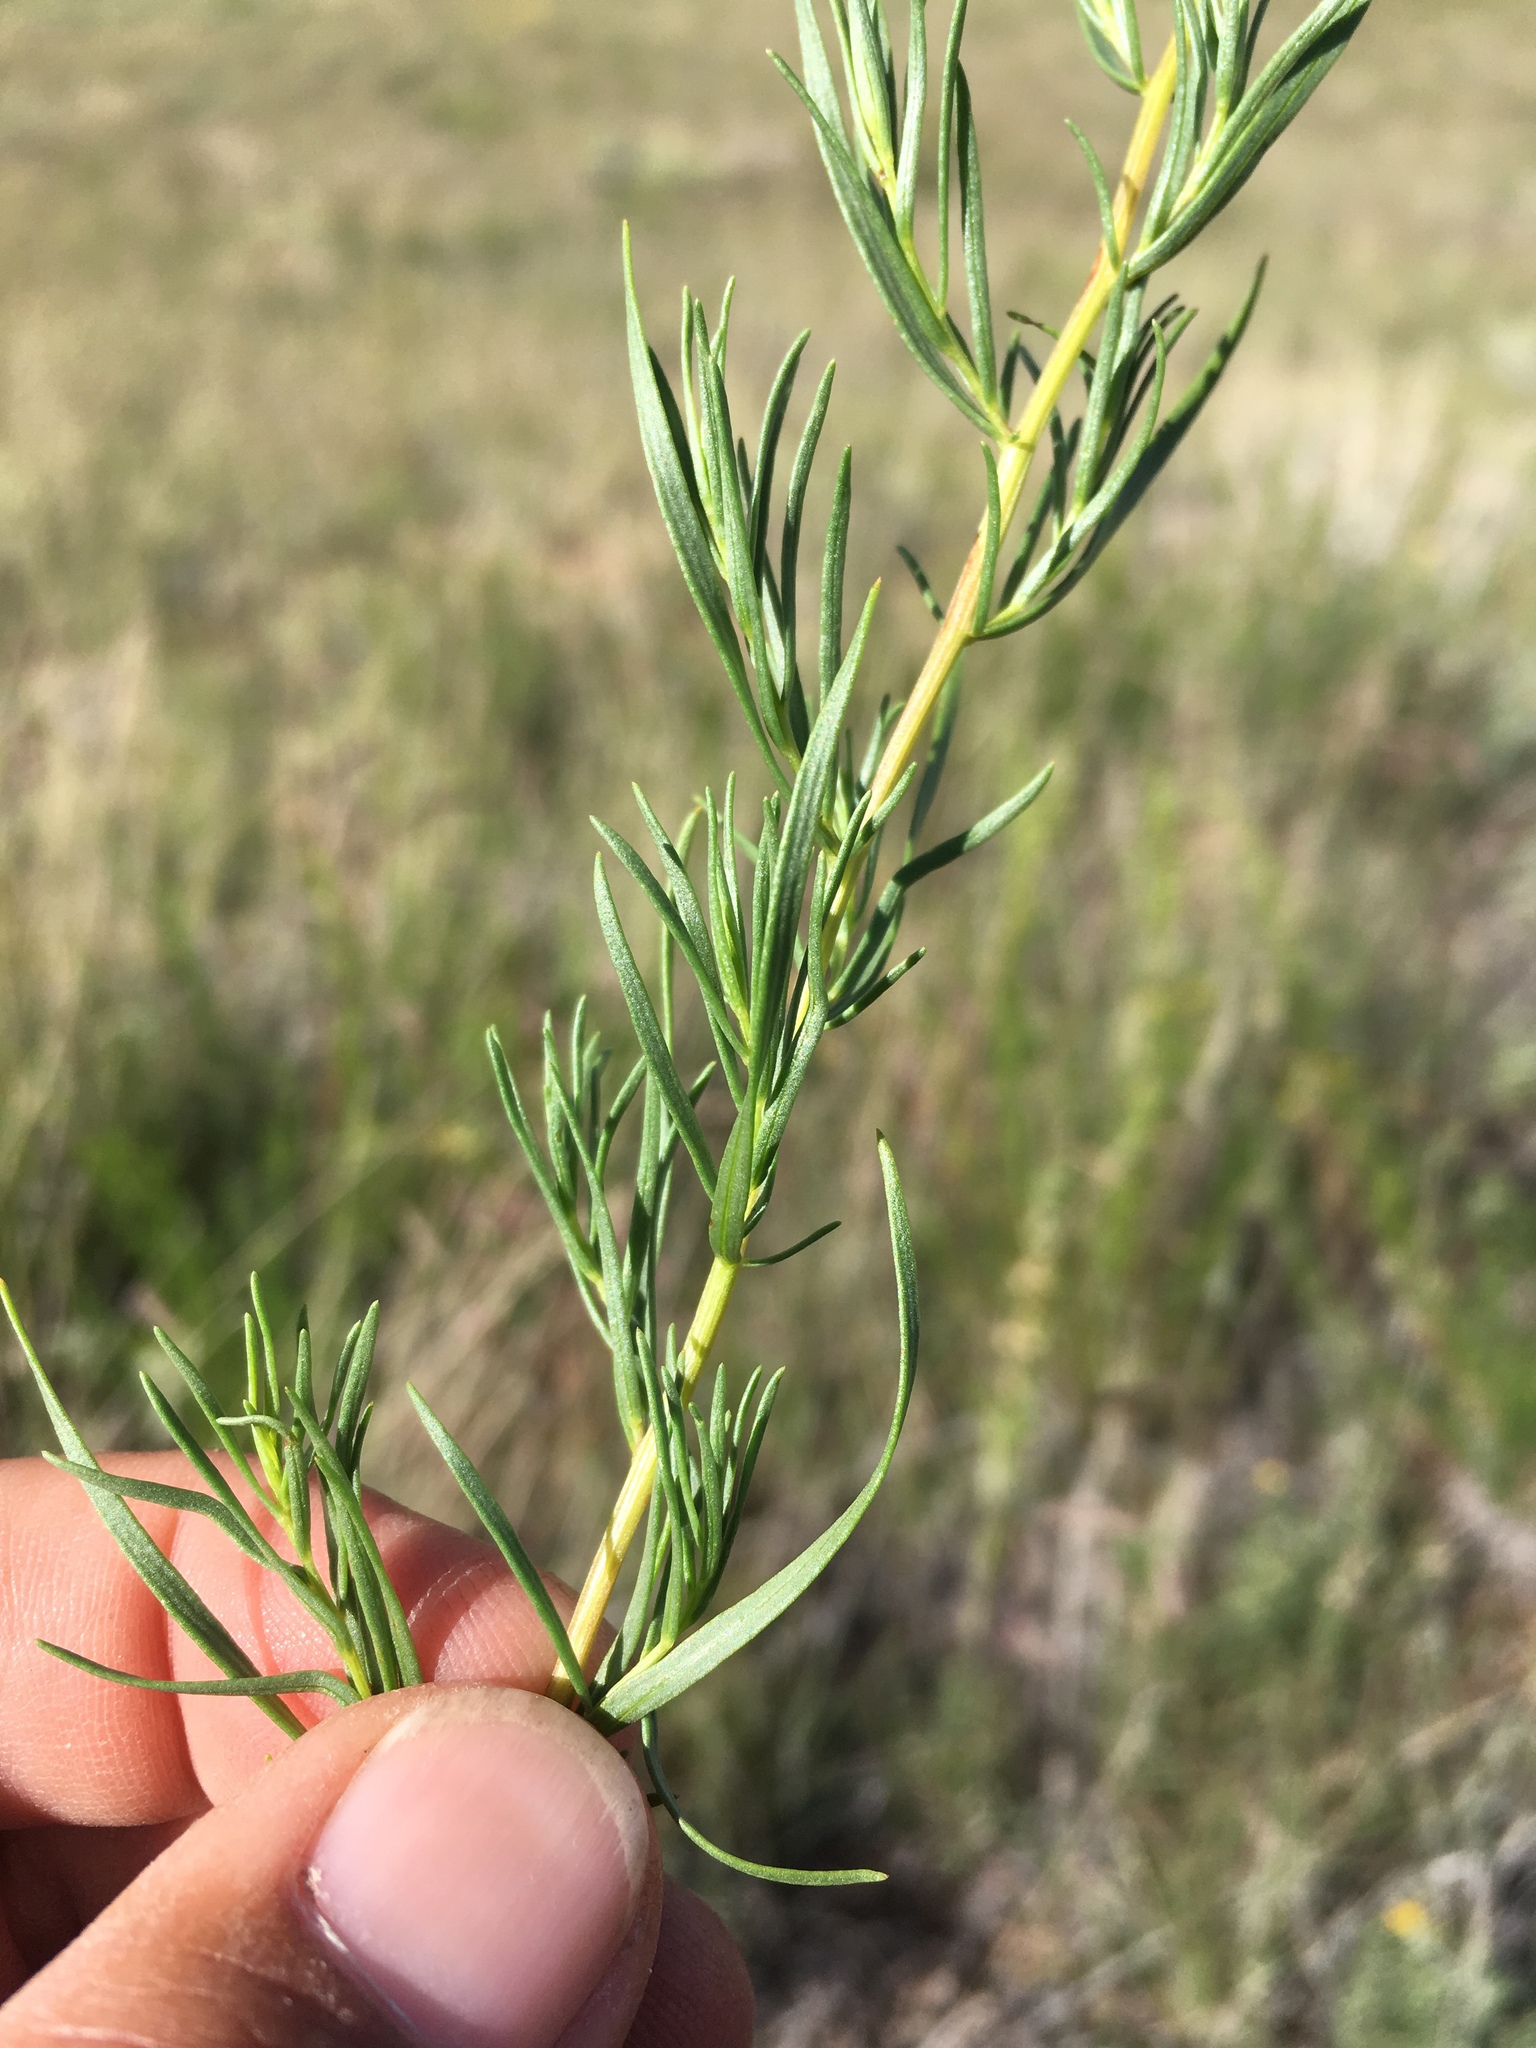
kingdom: Plantae
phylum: Tracheophyta
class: Magnoliopsida
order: Asterales
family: Asteraceae
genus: Artemisia
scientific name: Artemisia dracunculus
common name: Tarragon
